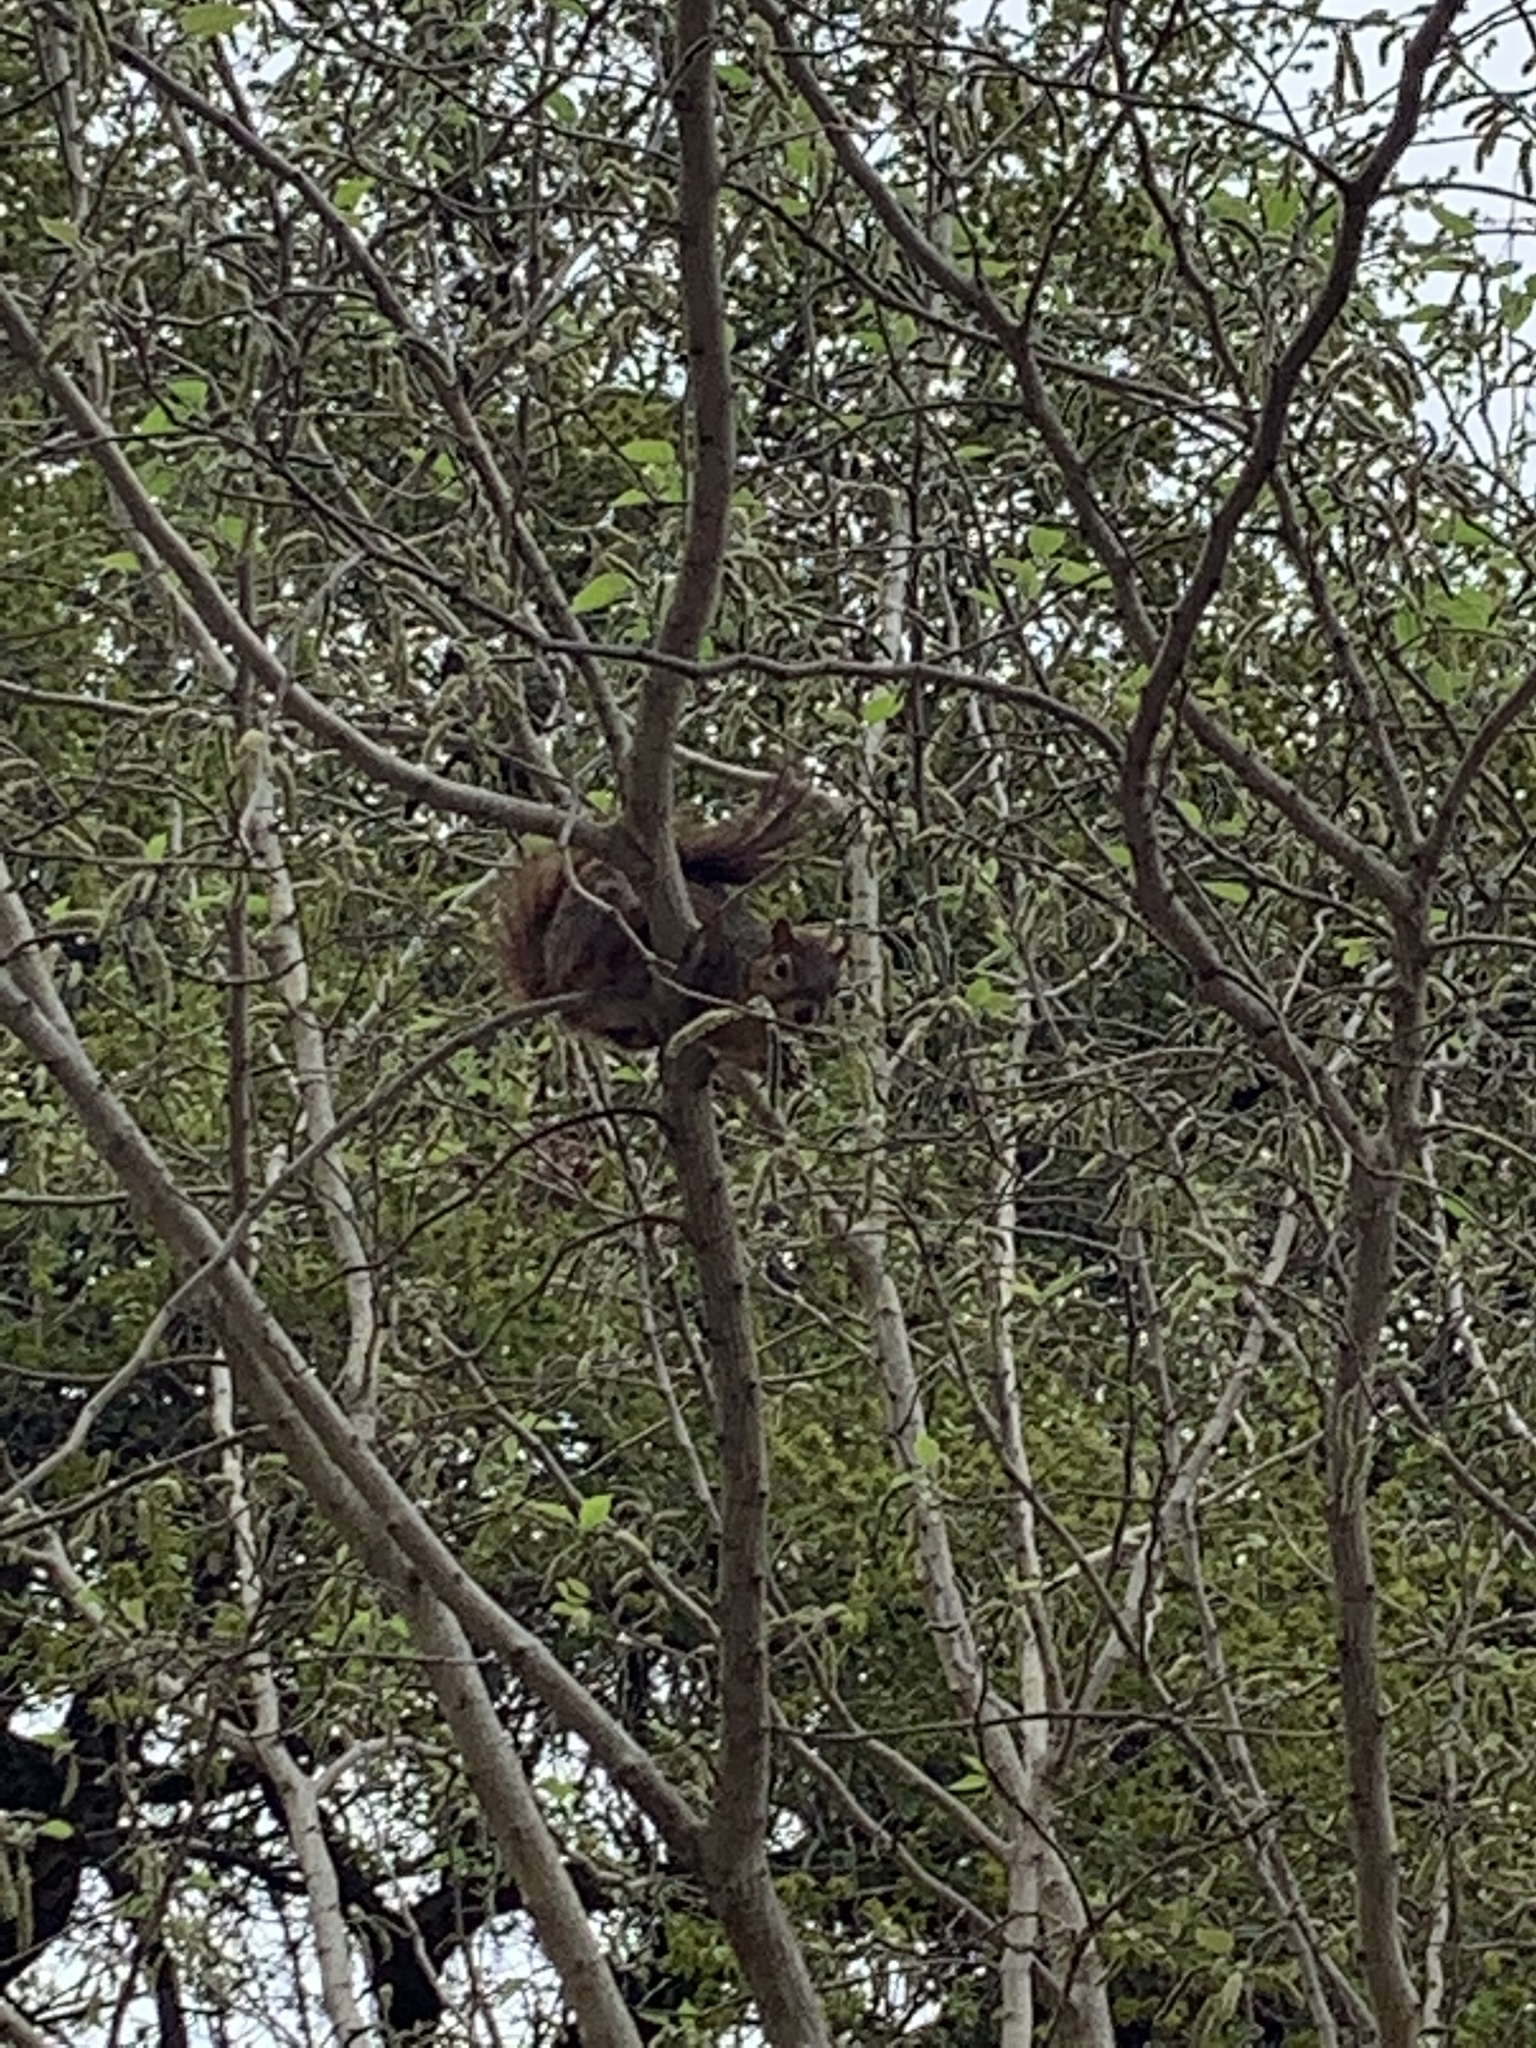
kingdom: Animalia
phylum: Chordata
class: Mammalia
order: Rodentia
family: Sciuridae
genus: Sciurus
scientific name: Sciurus niger
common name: Fox squirrel
